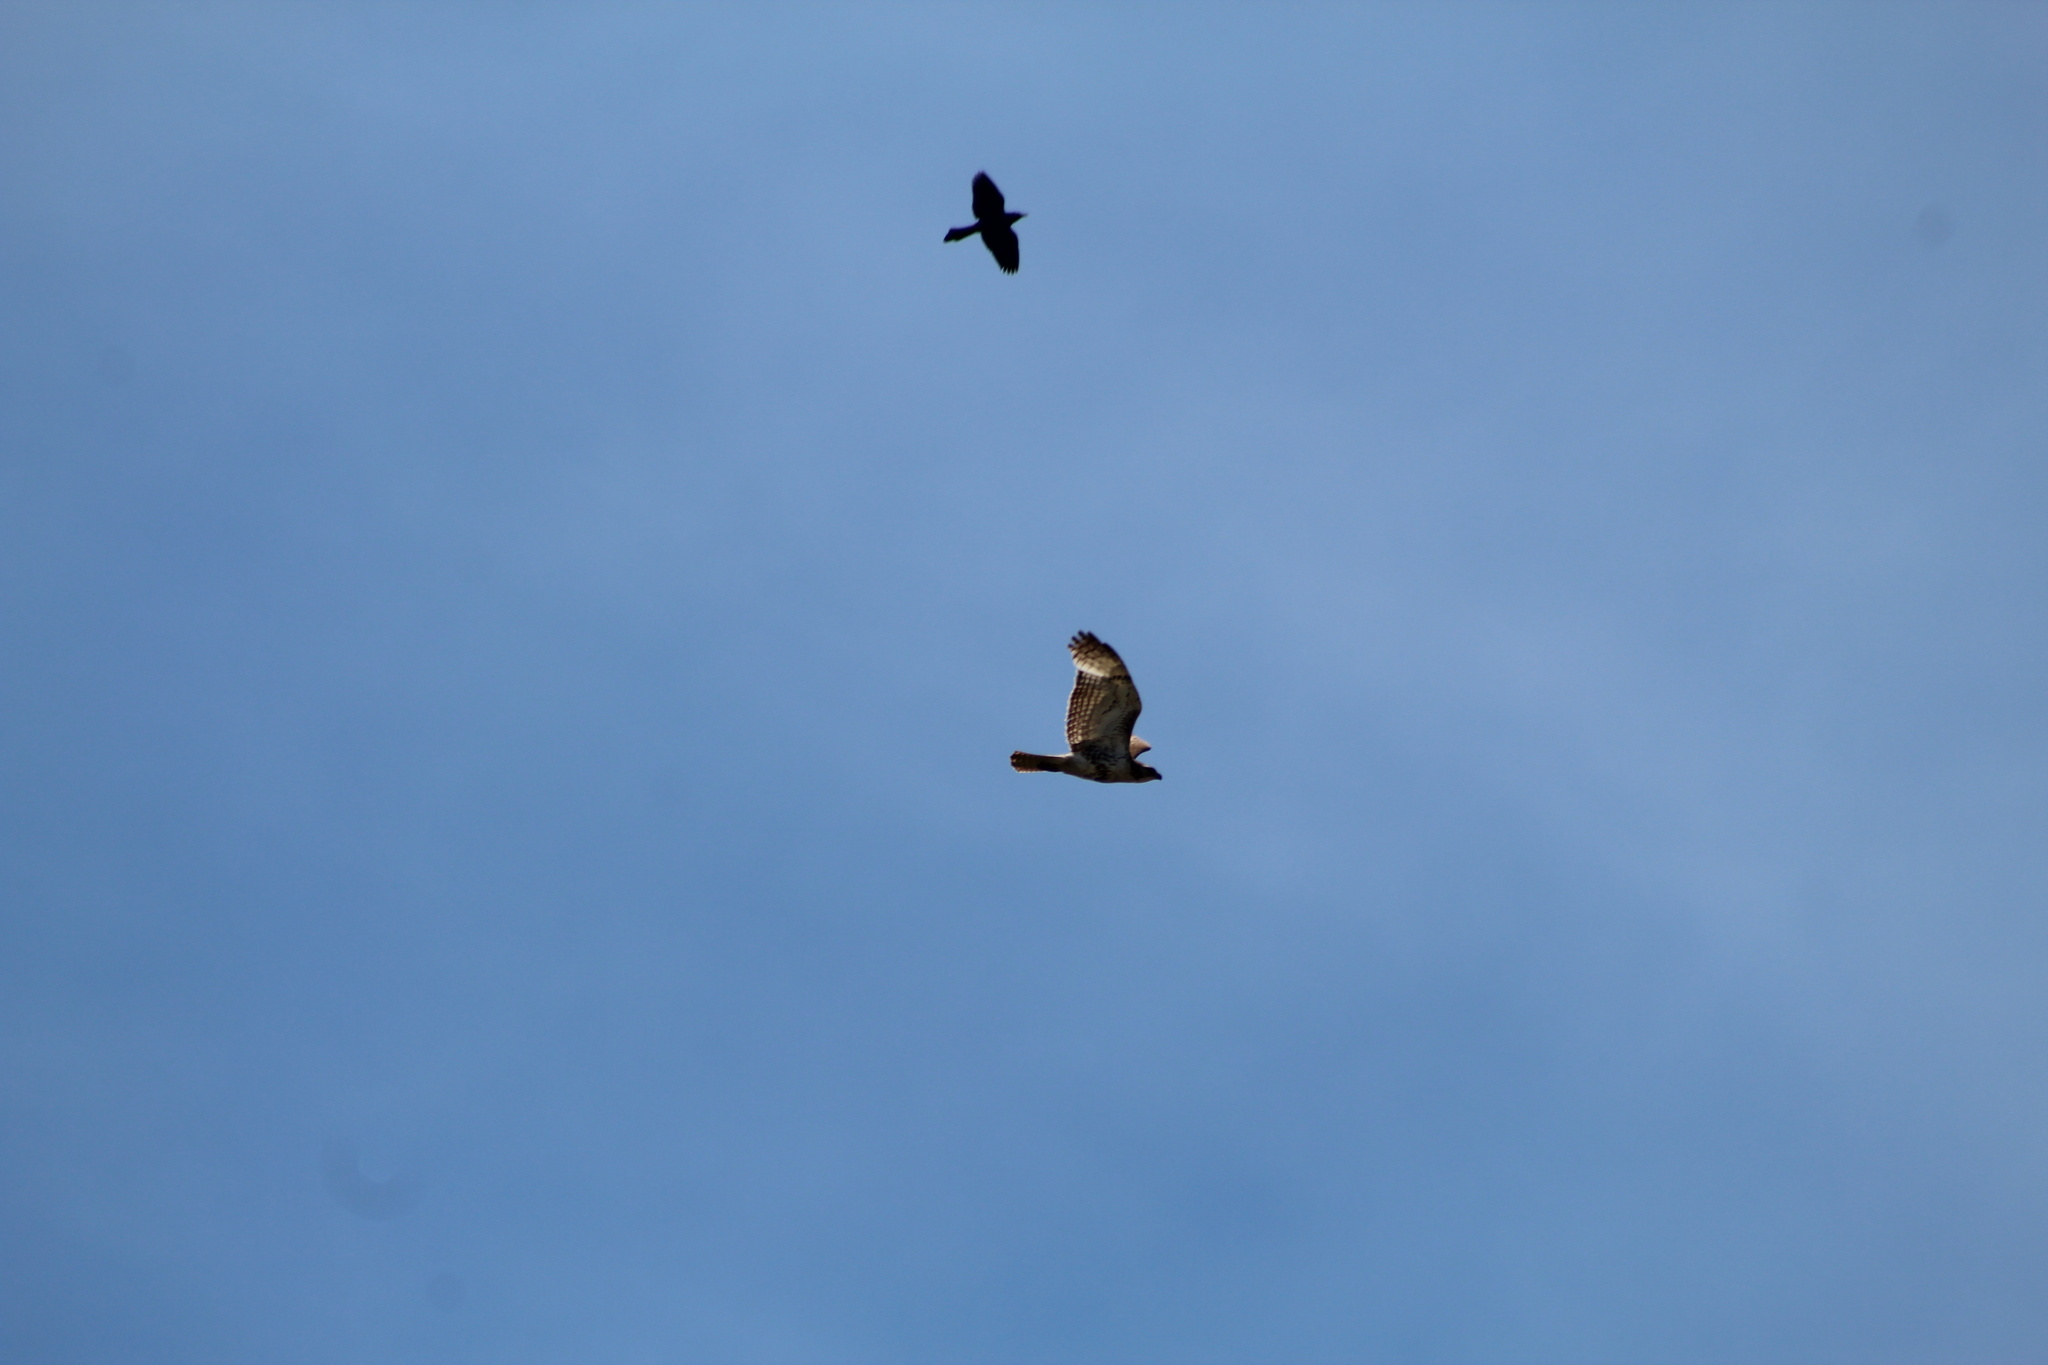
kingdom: Animalia
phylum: Chordata
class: Aves
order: Accipitriformes
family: Accipitridae
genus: Buteo
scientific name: Buteo jamaicensis
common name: Red-tailed hawk
